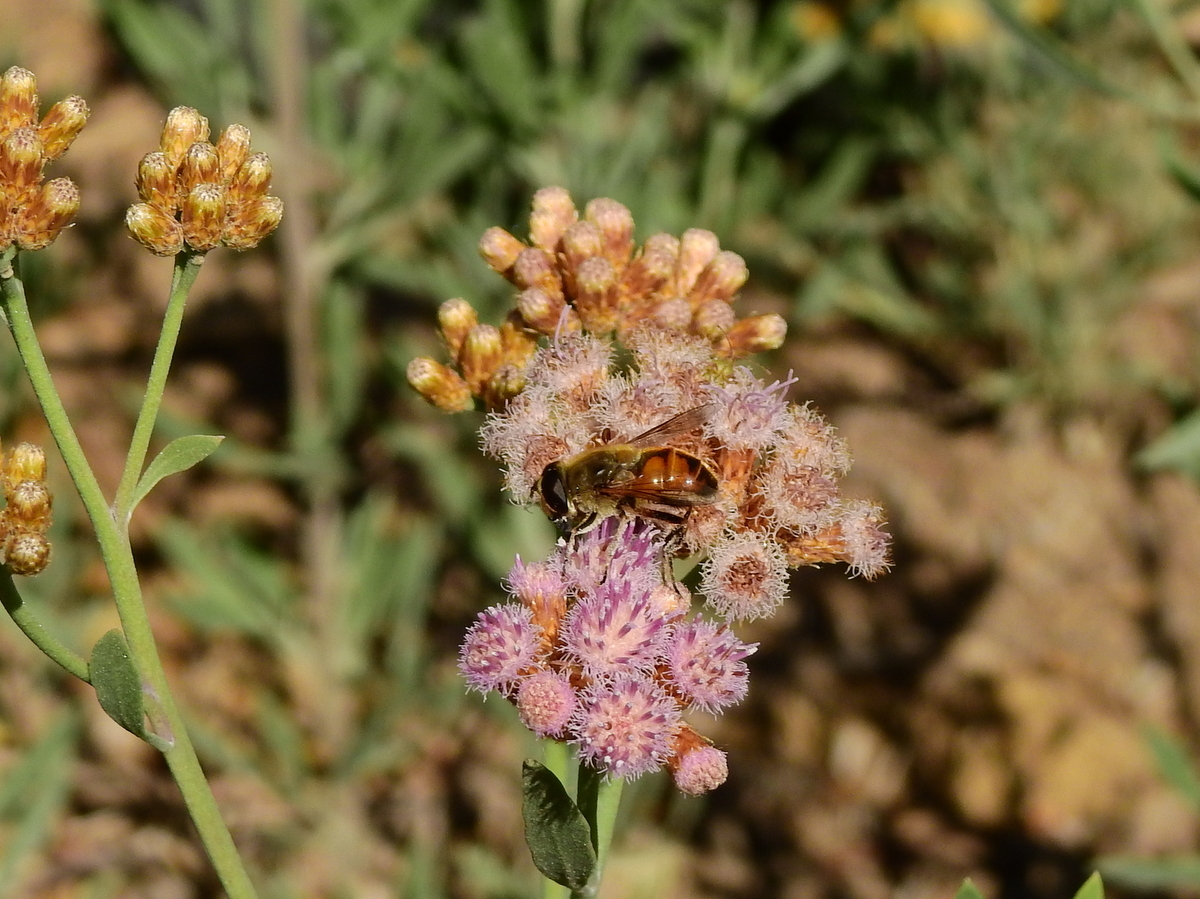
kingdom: Animalia
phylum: Arthropoda
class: Insecta
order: Diptera
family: Syrphidae
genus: Eristalis
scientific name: Eristalis tenax
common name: Drone fly
